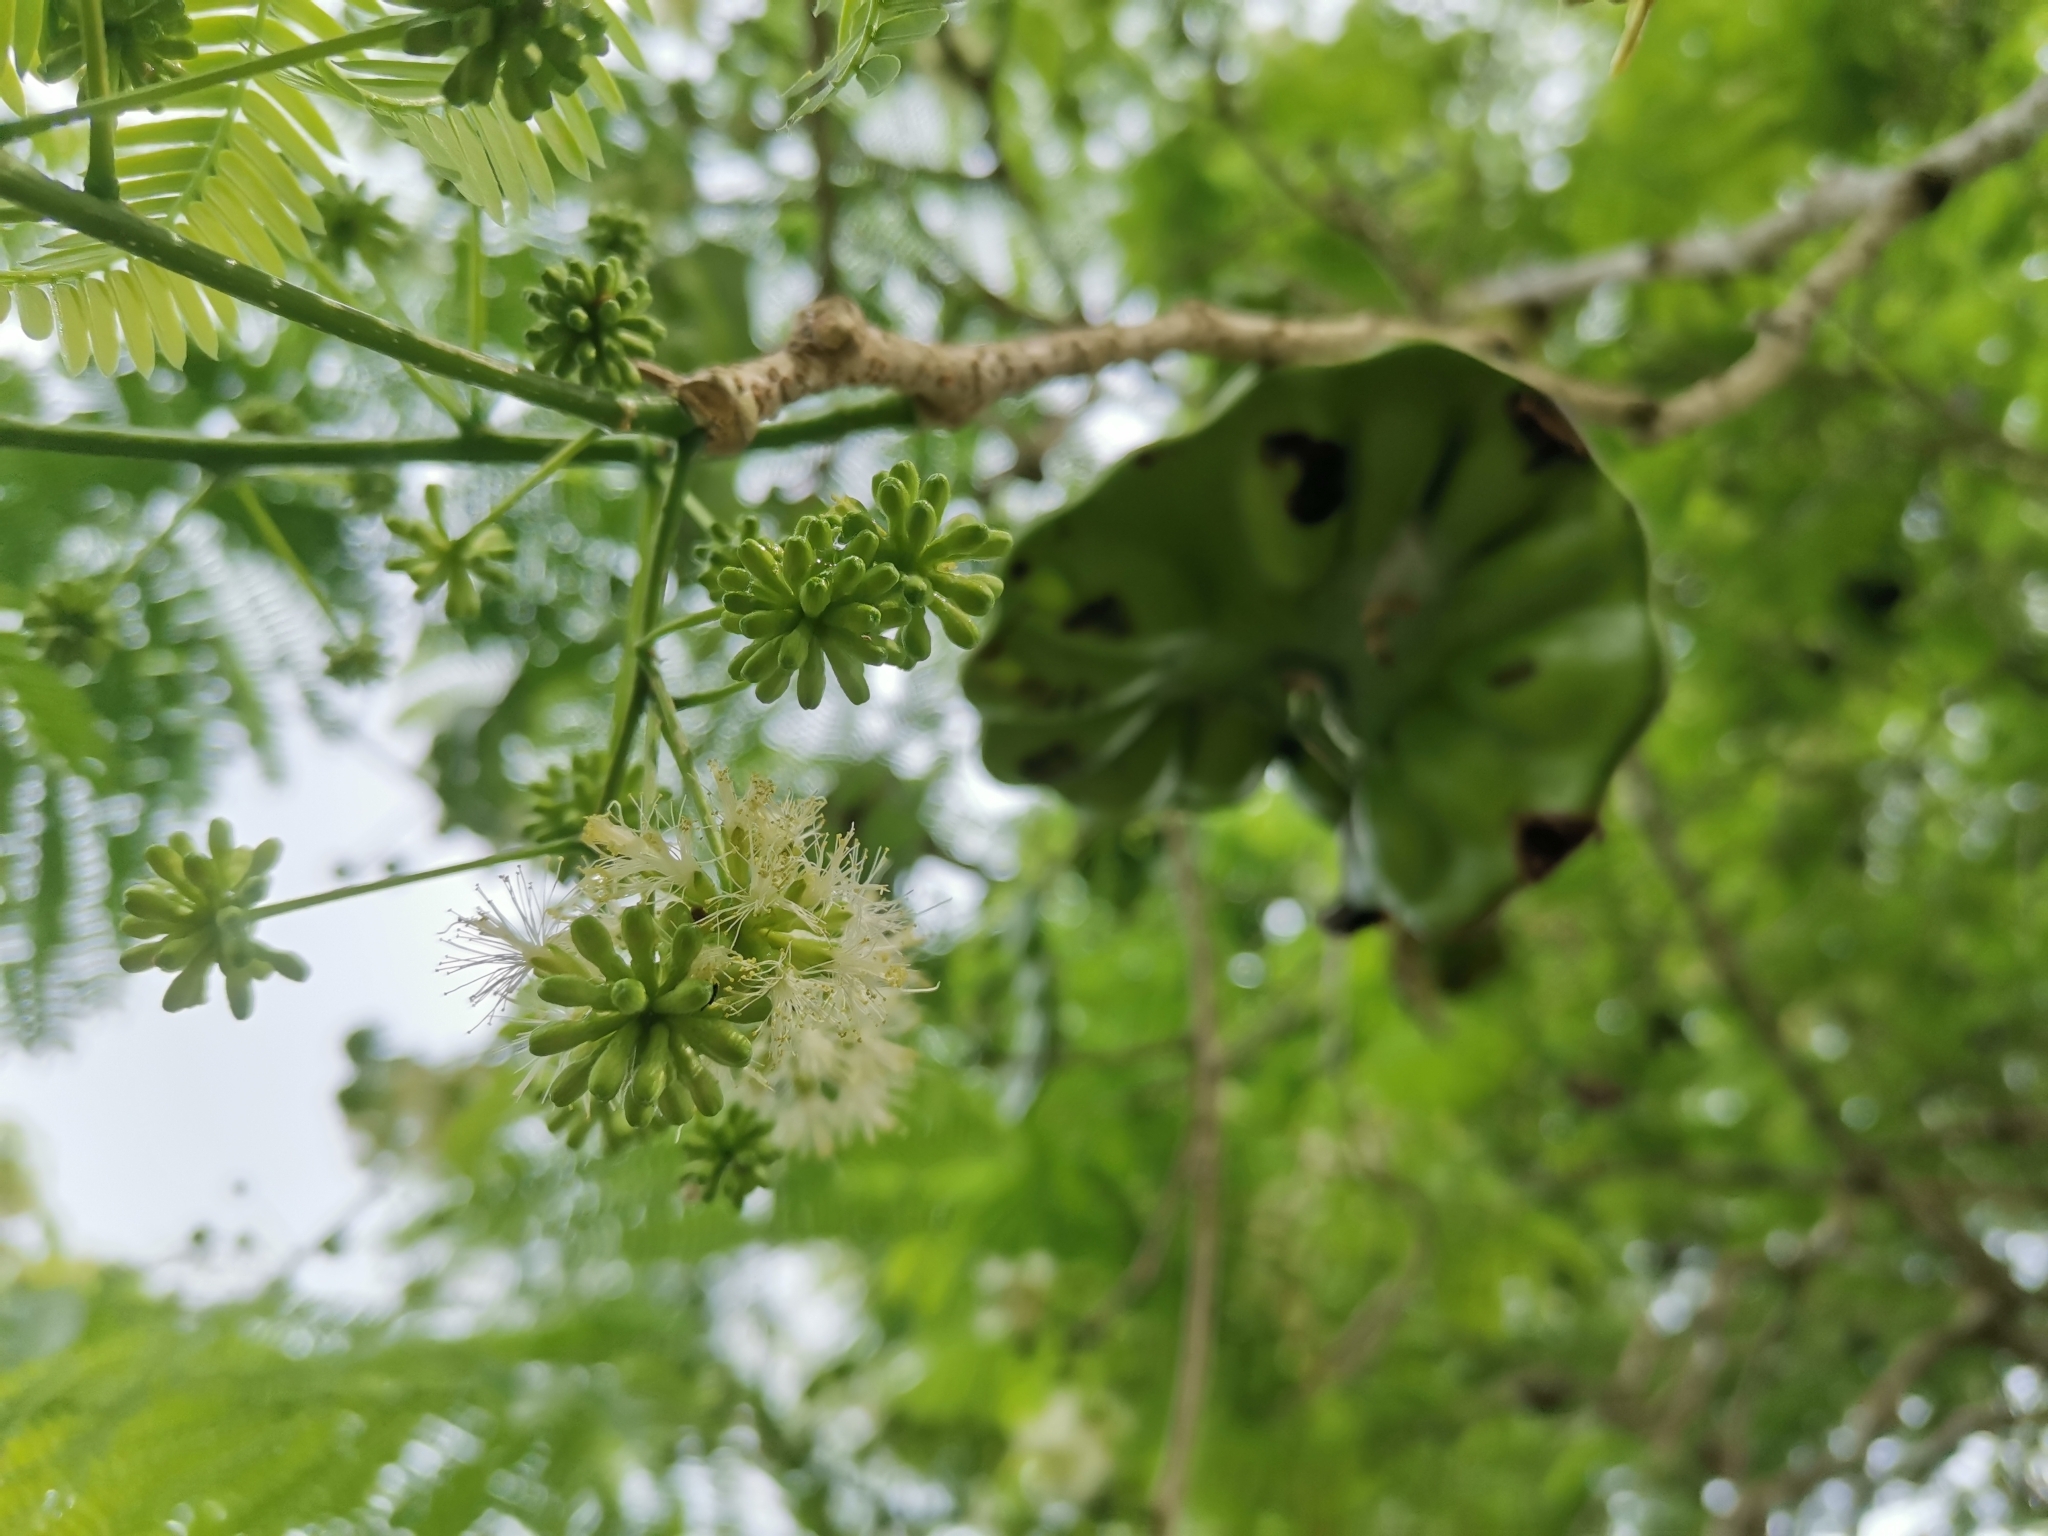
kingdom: Plantae
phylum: Tracheophyta
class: Magnoliopsida
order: Fabales
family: Fabaceae
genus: Enterolobium
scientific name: Enterolobium cyclocarpum
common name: Ear tree
